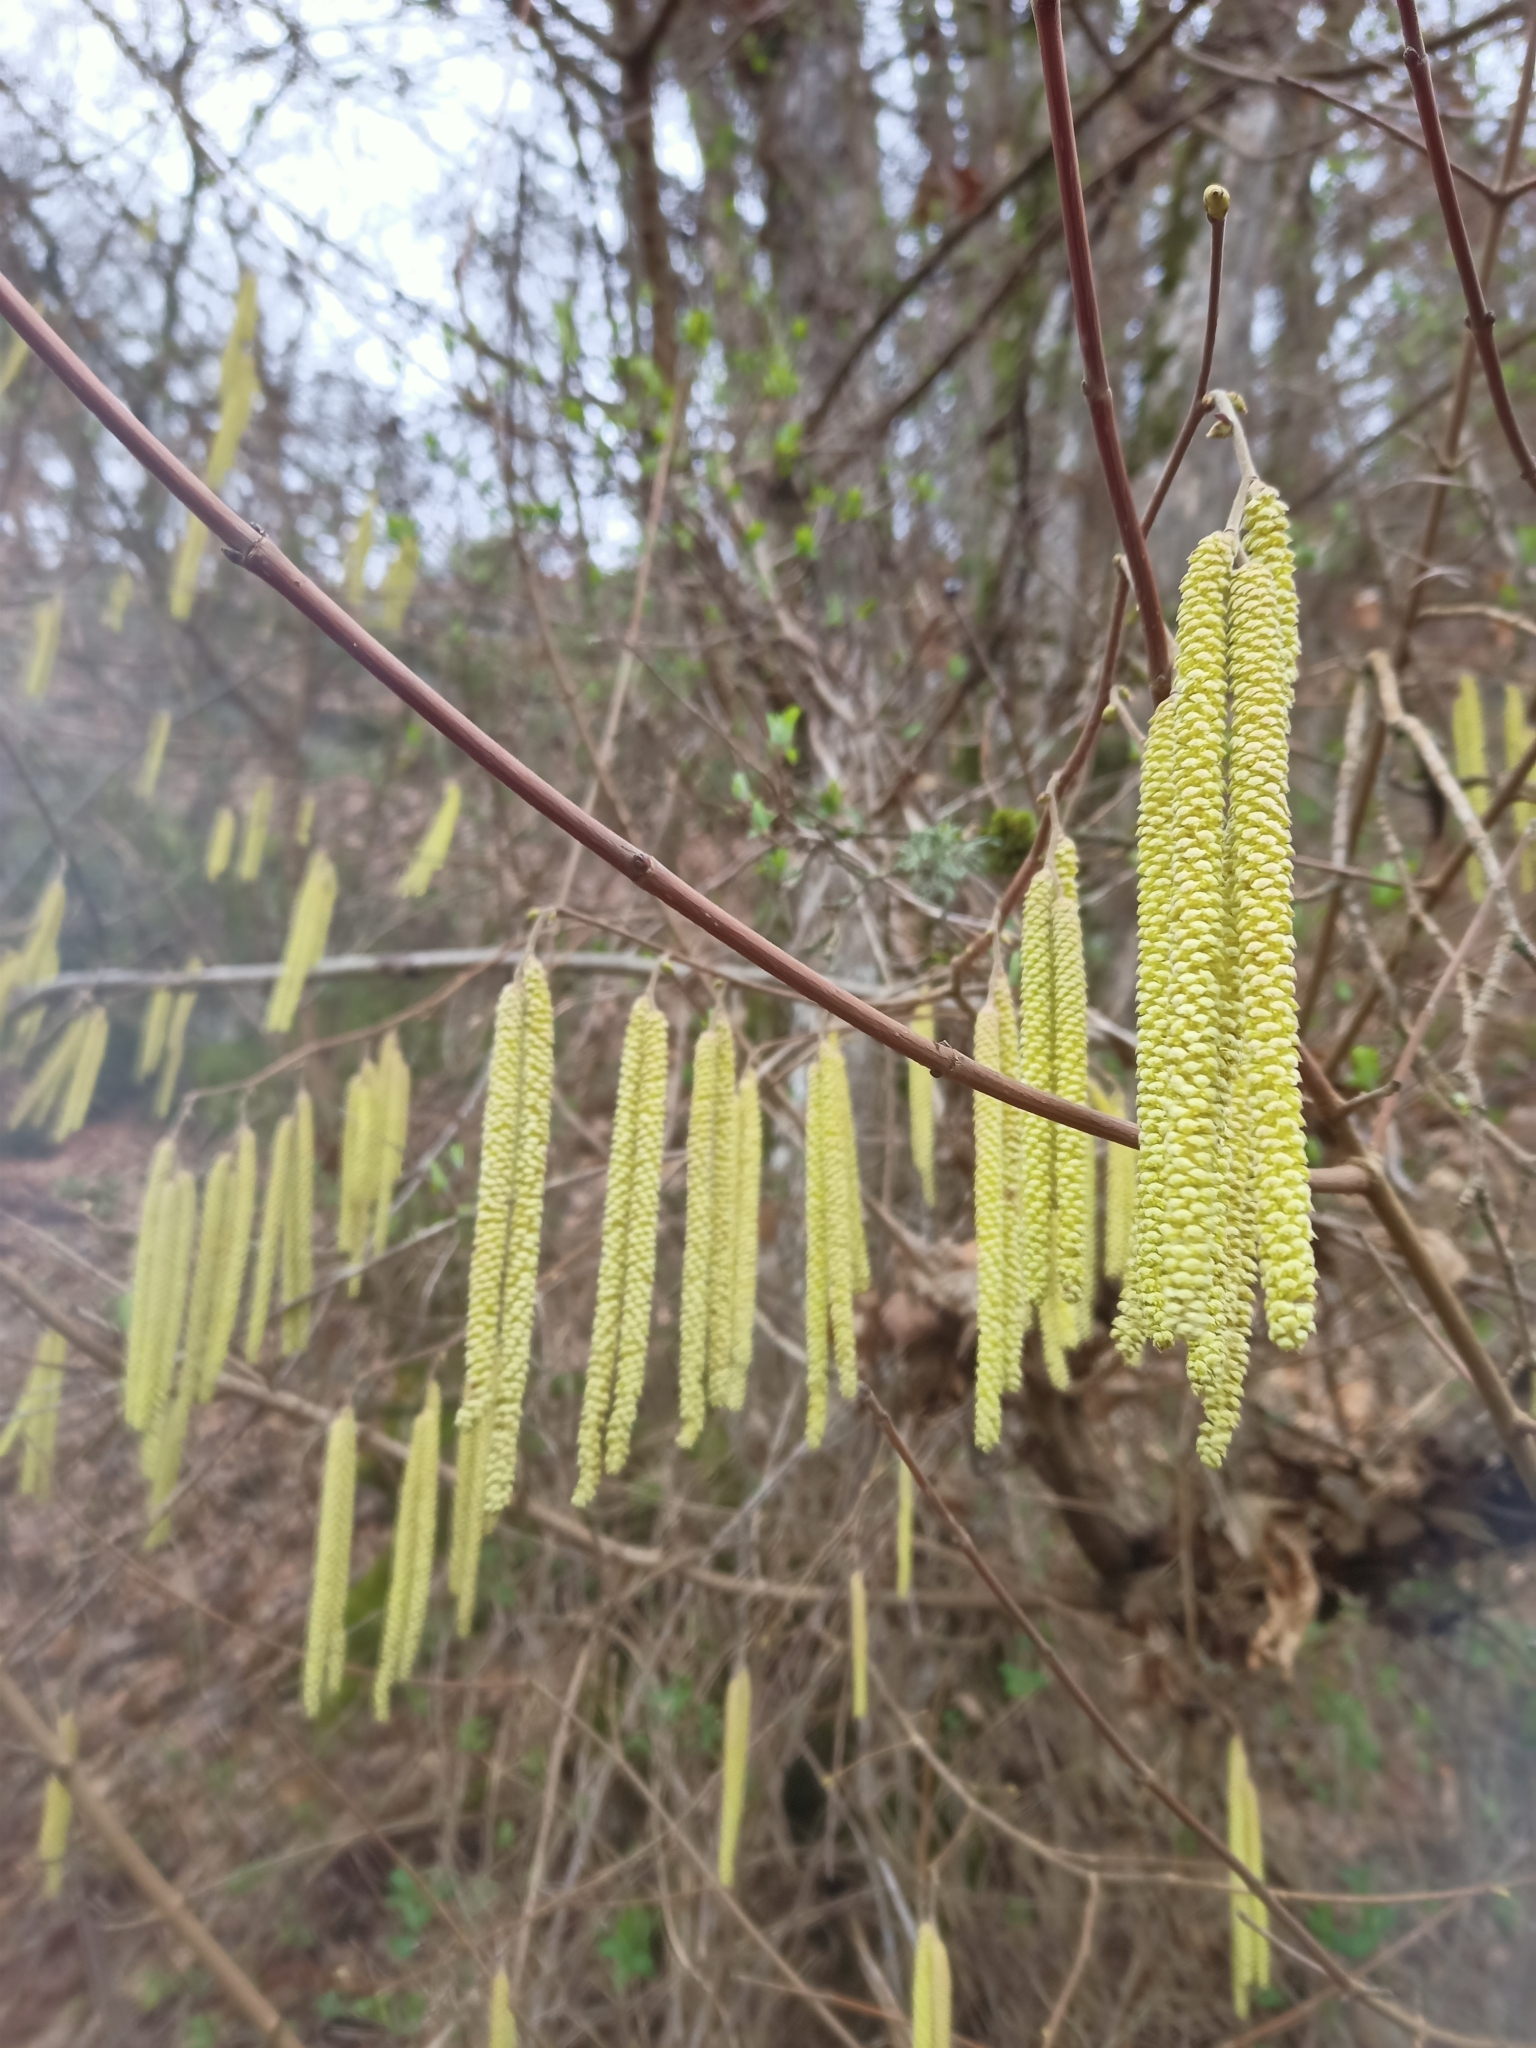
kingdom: Plantae
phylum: Tracheophyta
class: Magnoliopsida
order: Fagales
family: Betulaceae
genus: Corylus
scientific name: Corylus avellana
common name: European hazel
